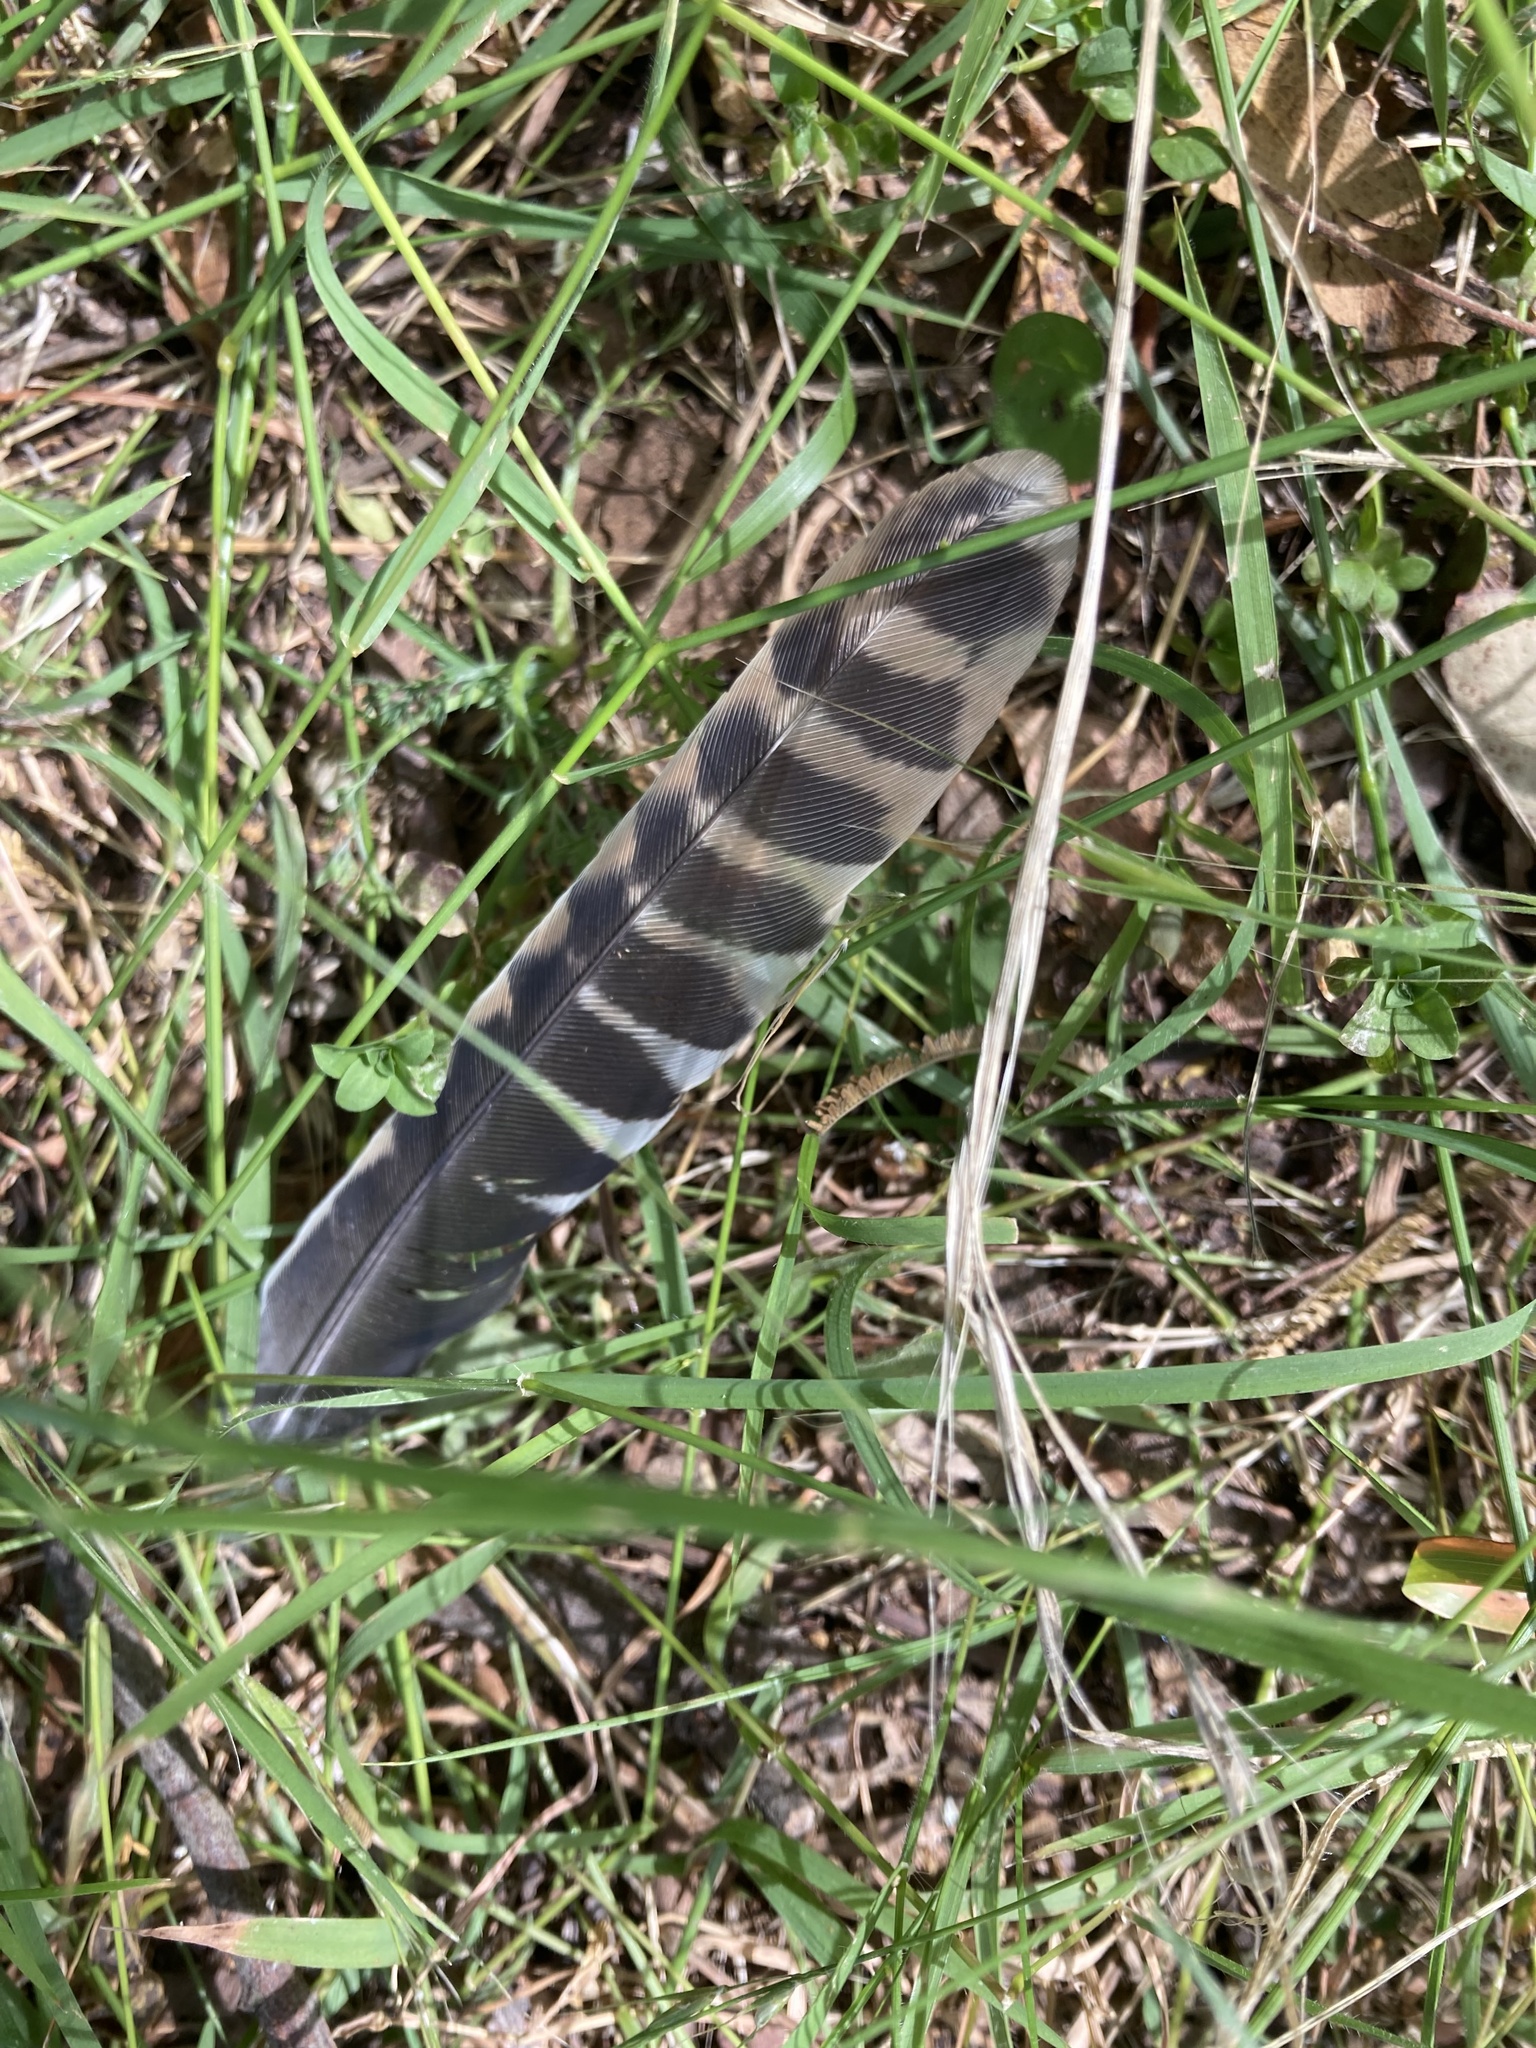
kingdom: Animalia
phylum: Chordata
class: Aves
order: Coraciiformes
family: Alcedinidae
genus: Dacelo
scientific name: Dacelo novaeguineae
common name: Laughing kookaburra
